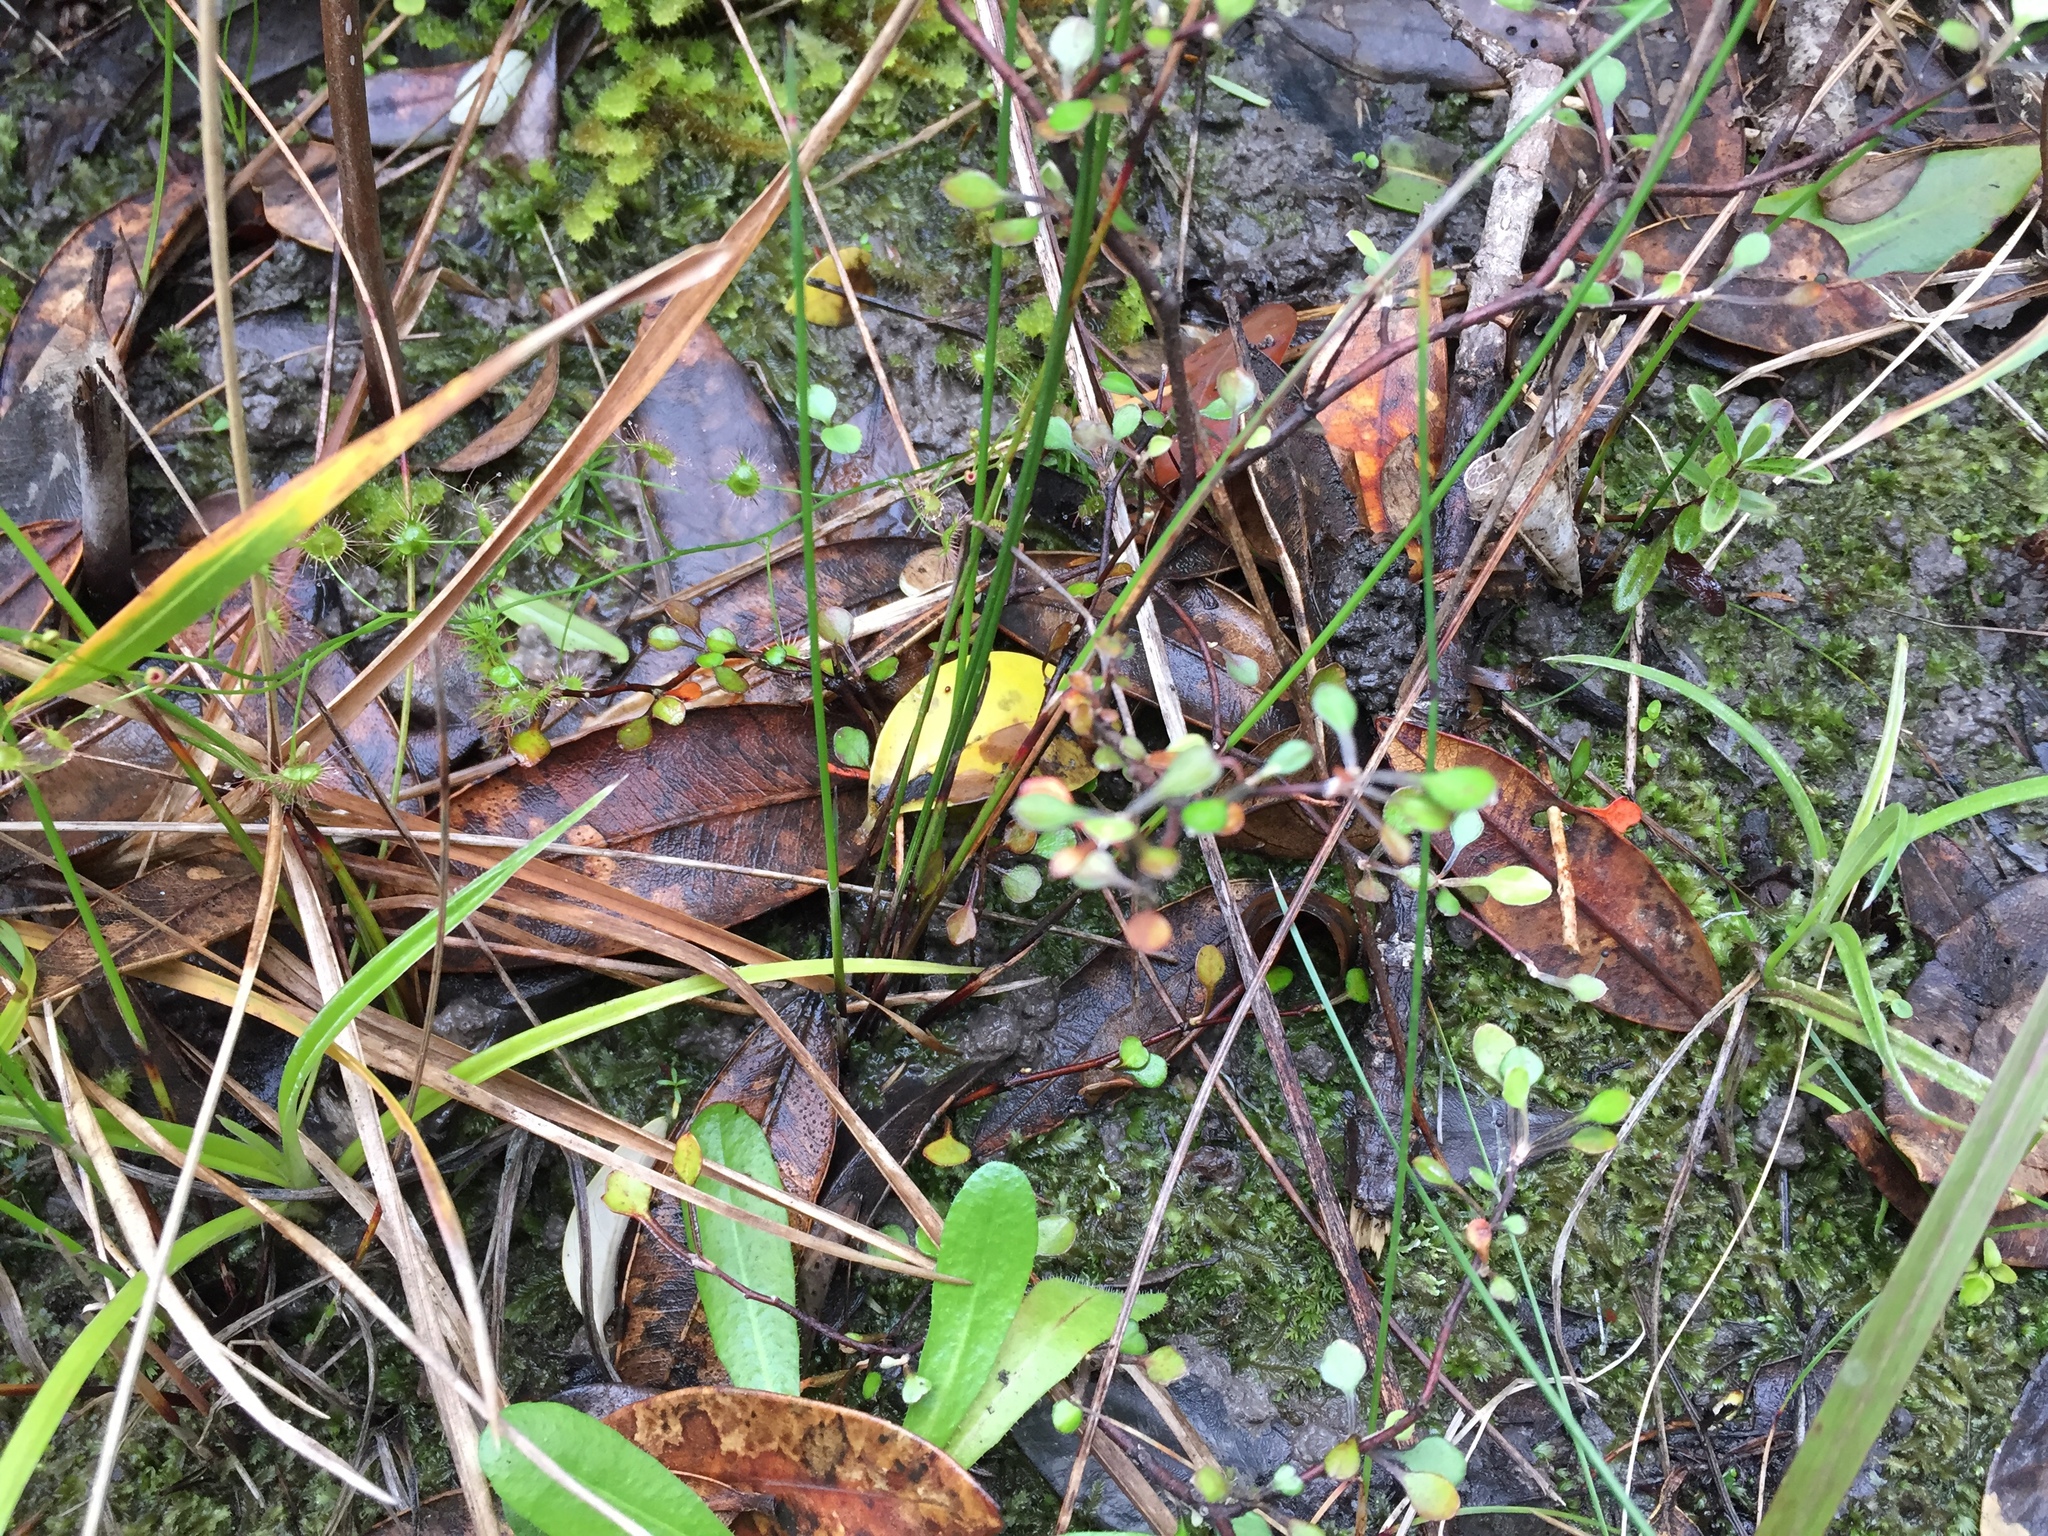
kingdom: Plantae
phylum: Tracheophyta
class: Magnoliopsida
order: Asterales
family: Argophyllaceae
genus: Corokia
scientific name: Corokia cotoneaster
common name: Wire nettingbush
